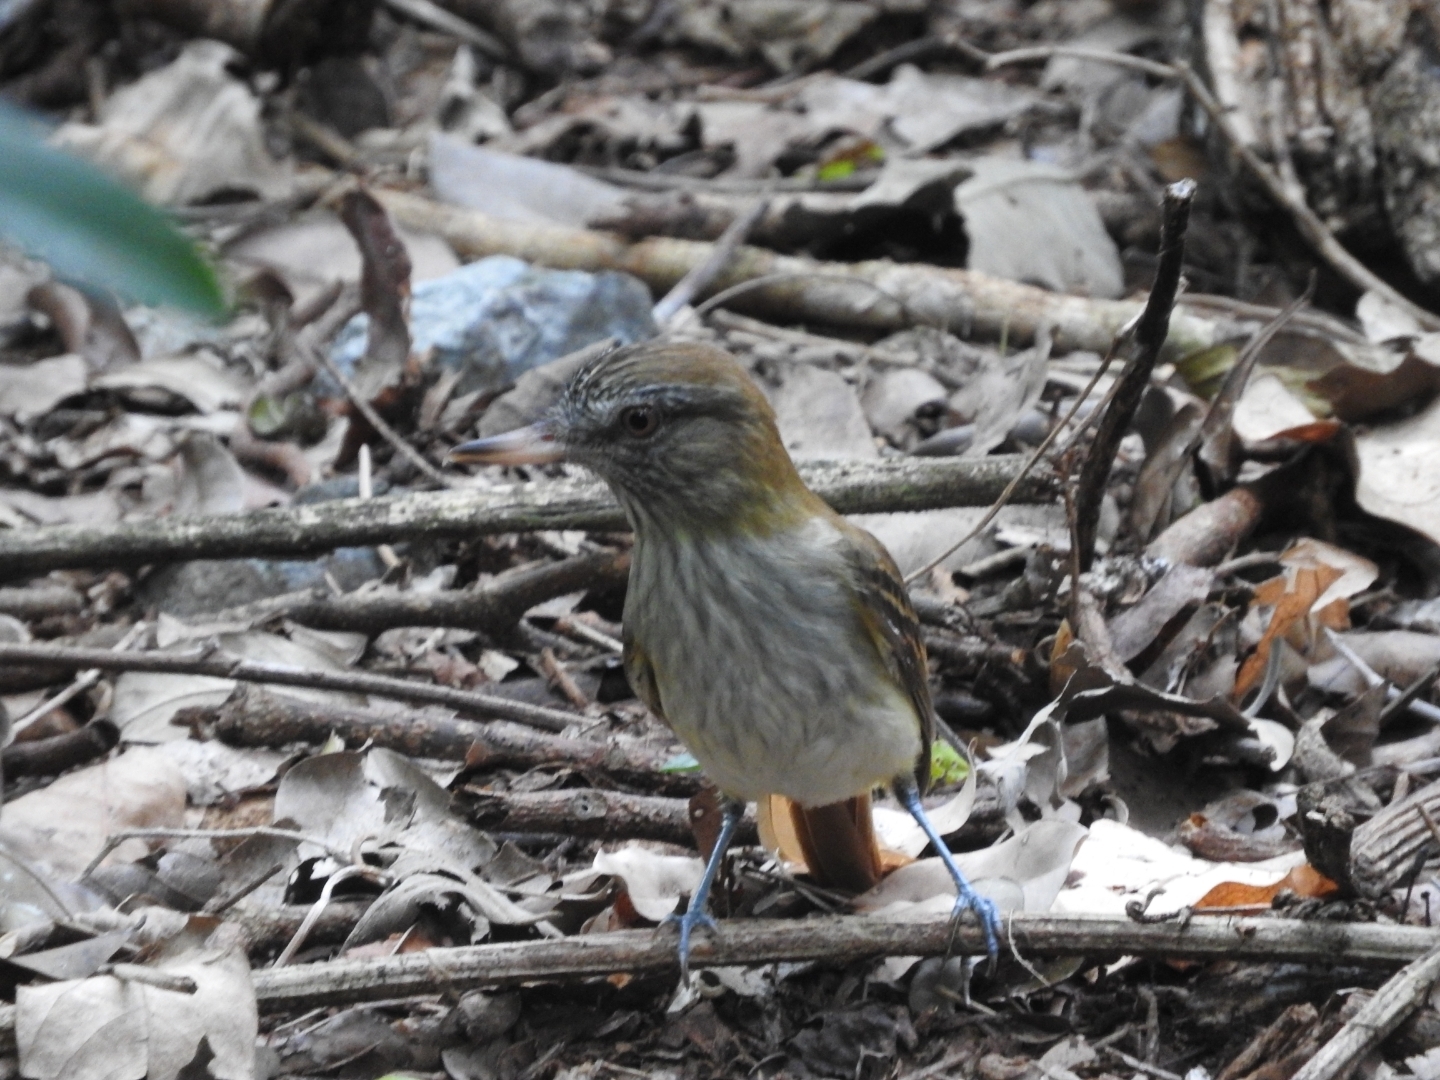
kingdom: Animalia
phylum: Chordata
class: Aves
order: Passeriformes
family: Tyrannidae
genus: Attila
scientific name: Attila spadiceus
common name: Bright-rumped attila
